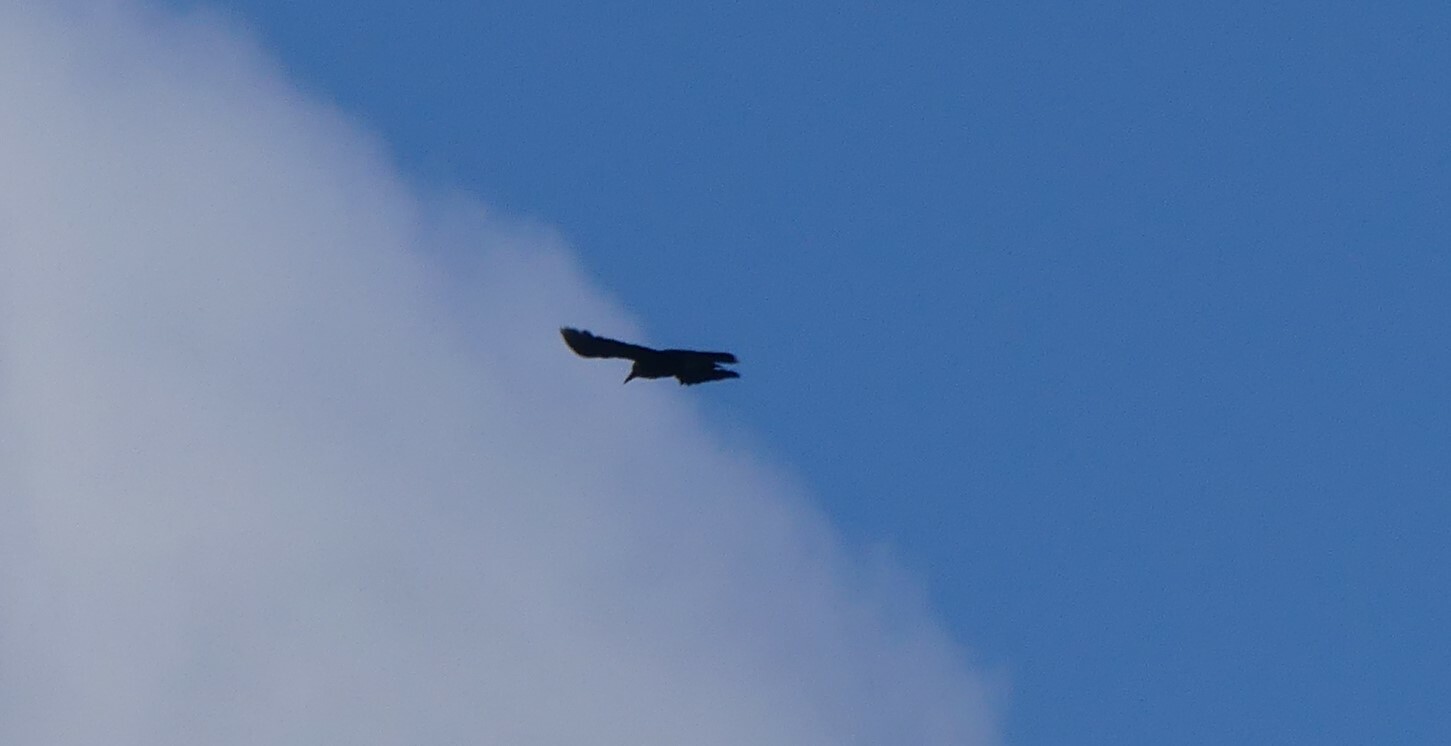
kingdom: Animalia
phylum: Chordata
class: Aves
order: Passeriformes
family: Corvidae
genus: Nucifraga
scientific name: Nucifraga caryocatactes
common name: Spotted nutcracker
